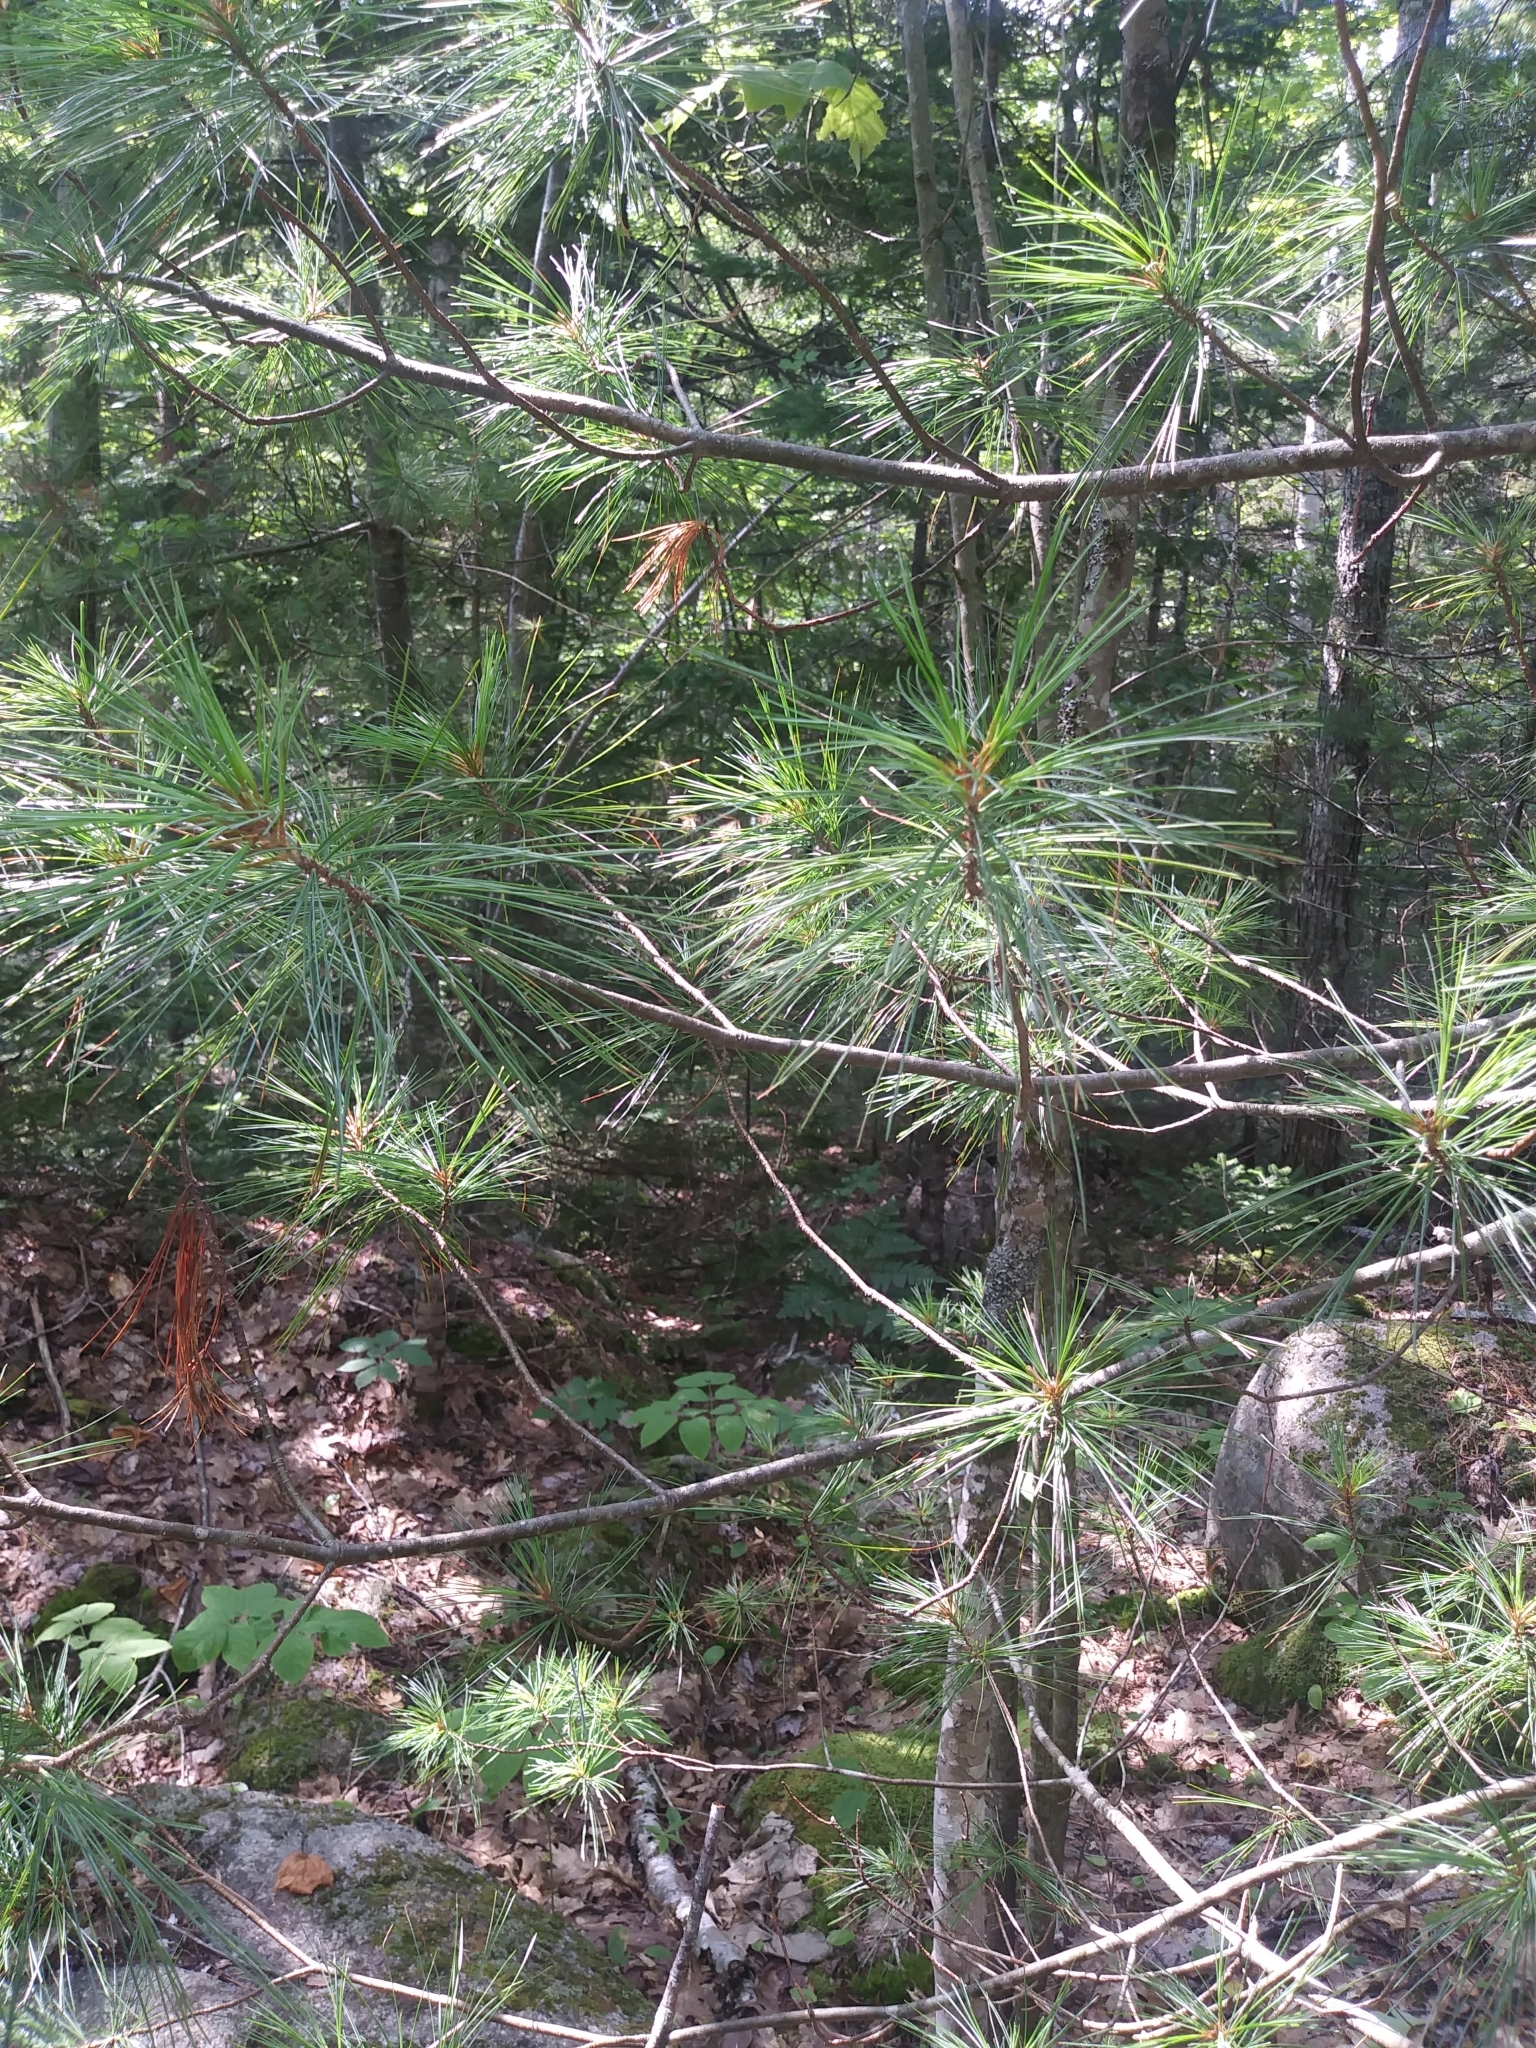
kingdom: Plantae
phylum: Tracheophyta
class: Pinopsida
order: Pinales
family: Pinaceae
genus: Pinus
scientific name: Pinus strobus
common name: Weymouth pine
